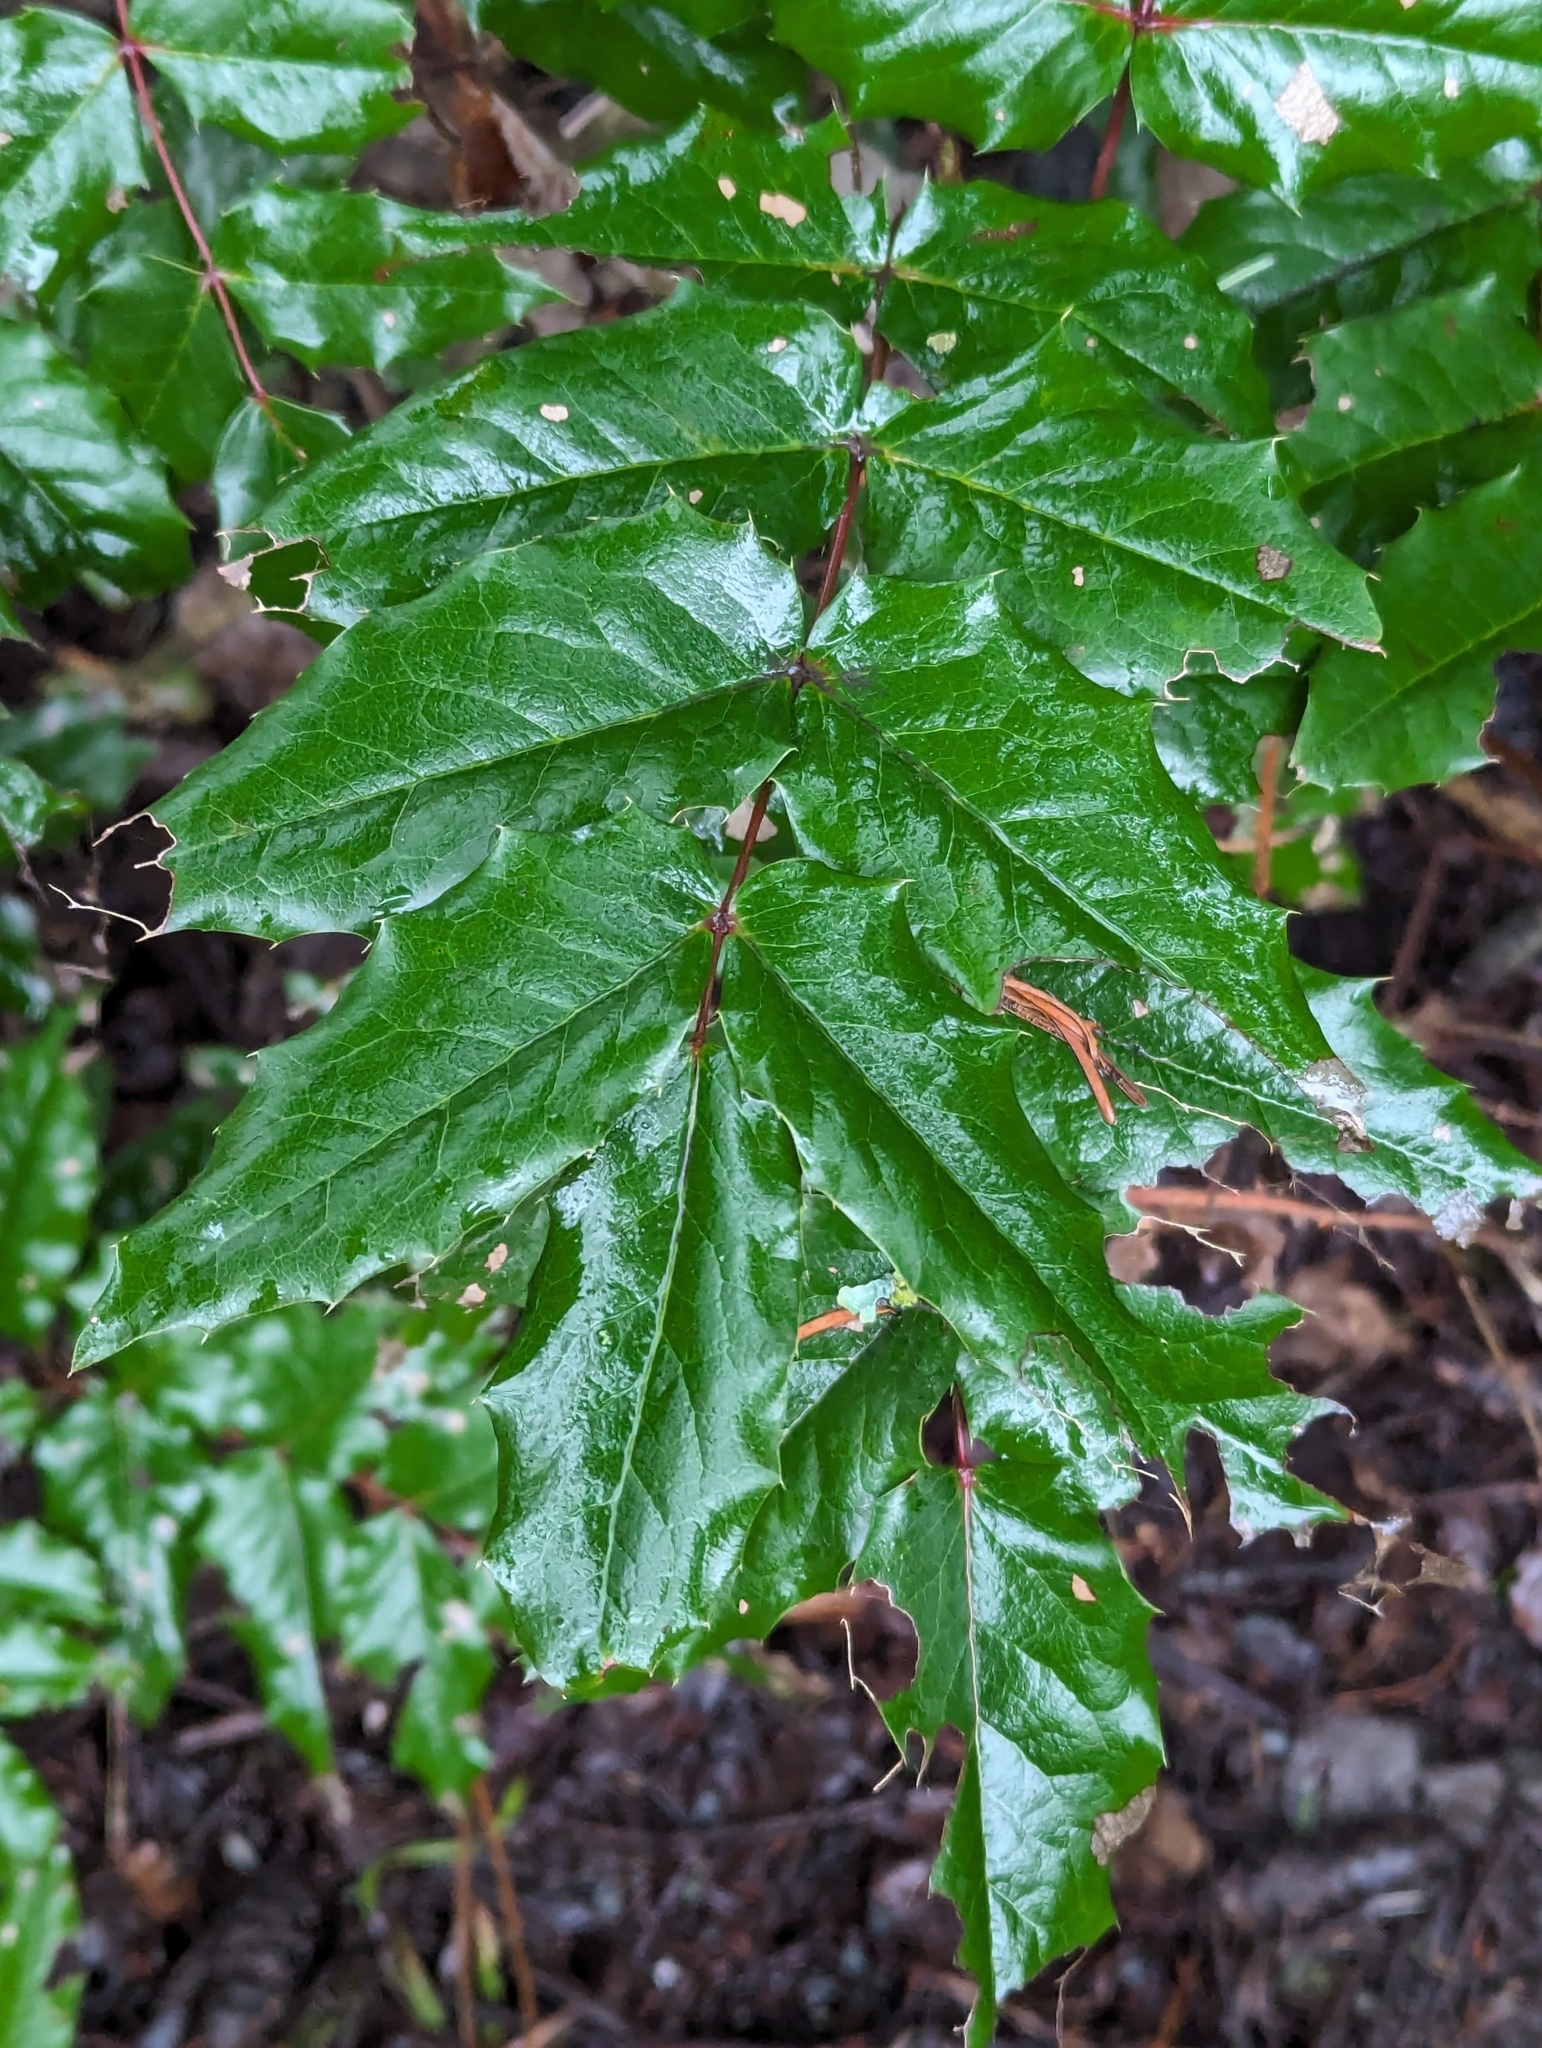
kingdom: Plantae
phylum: Tracheophyta
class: Magnoliopsida
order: Ranunculales
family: Berberidaceae
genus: Mahonia
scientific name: Mahonia aquifolium
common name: Oregon-grape
